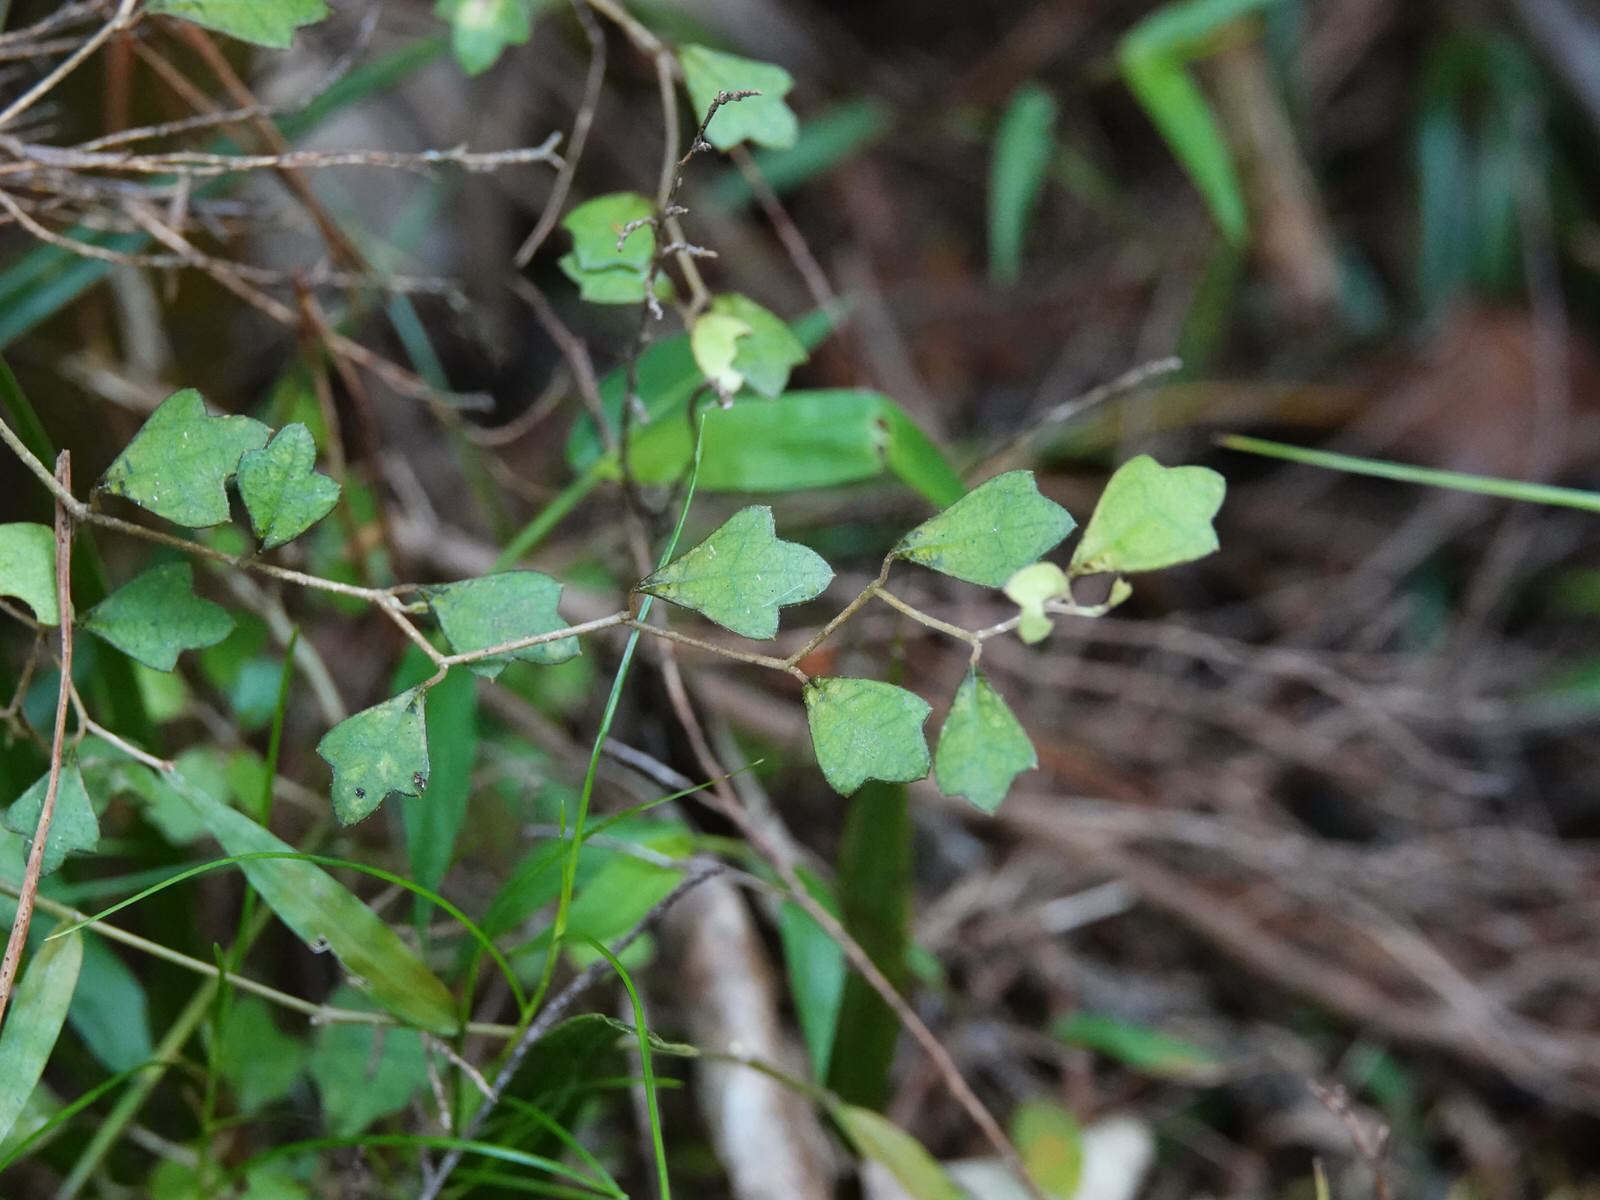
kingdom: Plantae
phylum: Tracheophyta
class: Magnoliopsida
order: Apiales
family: Pennantiaceae
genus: Pennantia
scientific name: Pennantia corymbosa
